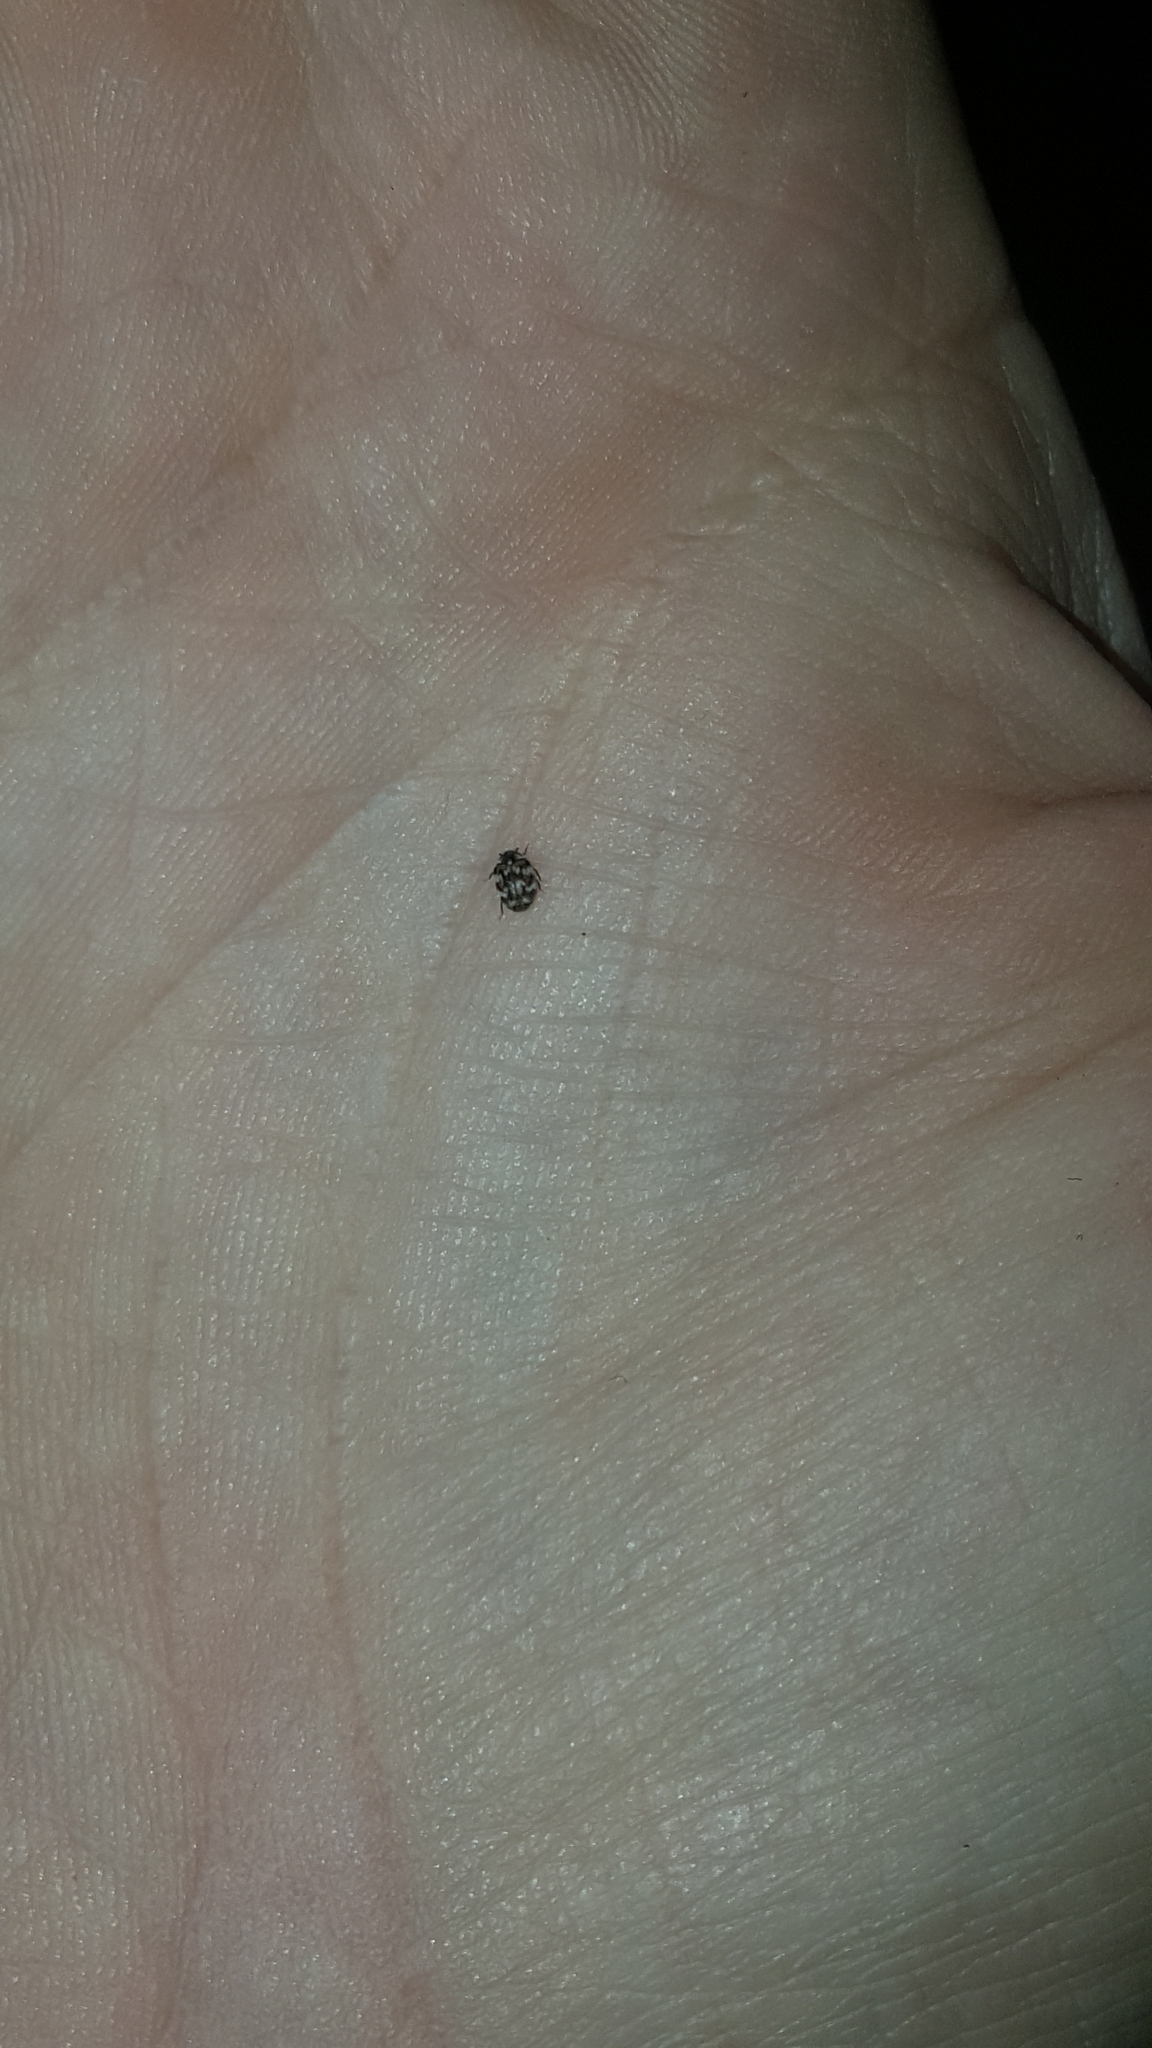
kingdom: Animalia
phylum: Arthropoda
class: Insecta
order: Coleoptera
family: Dermestidae
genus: Anthrenus
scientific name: Anthrenus verbasci
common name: Varied carpet beetle
